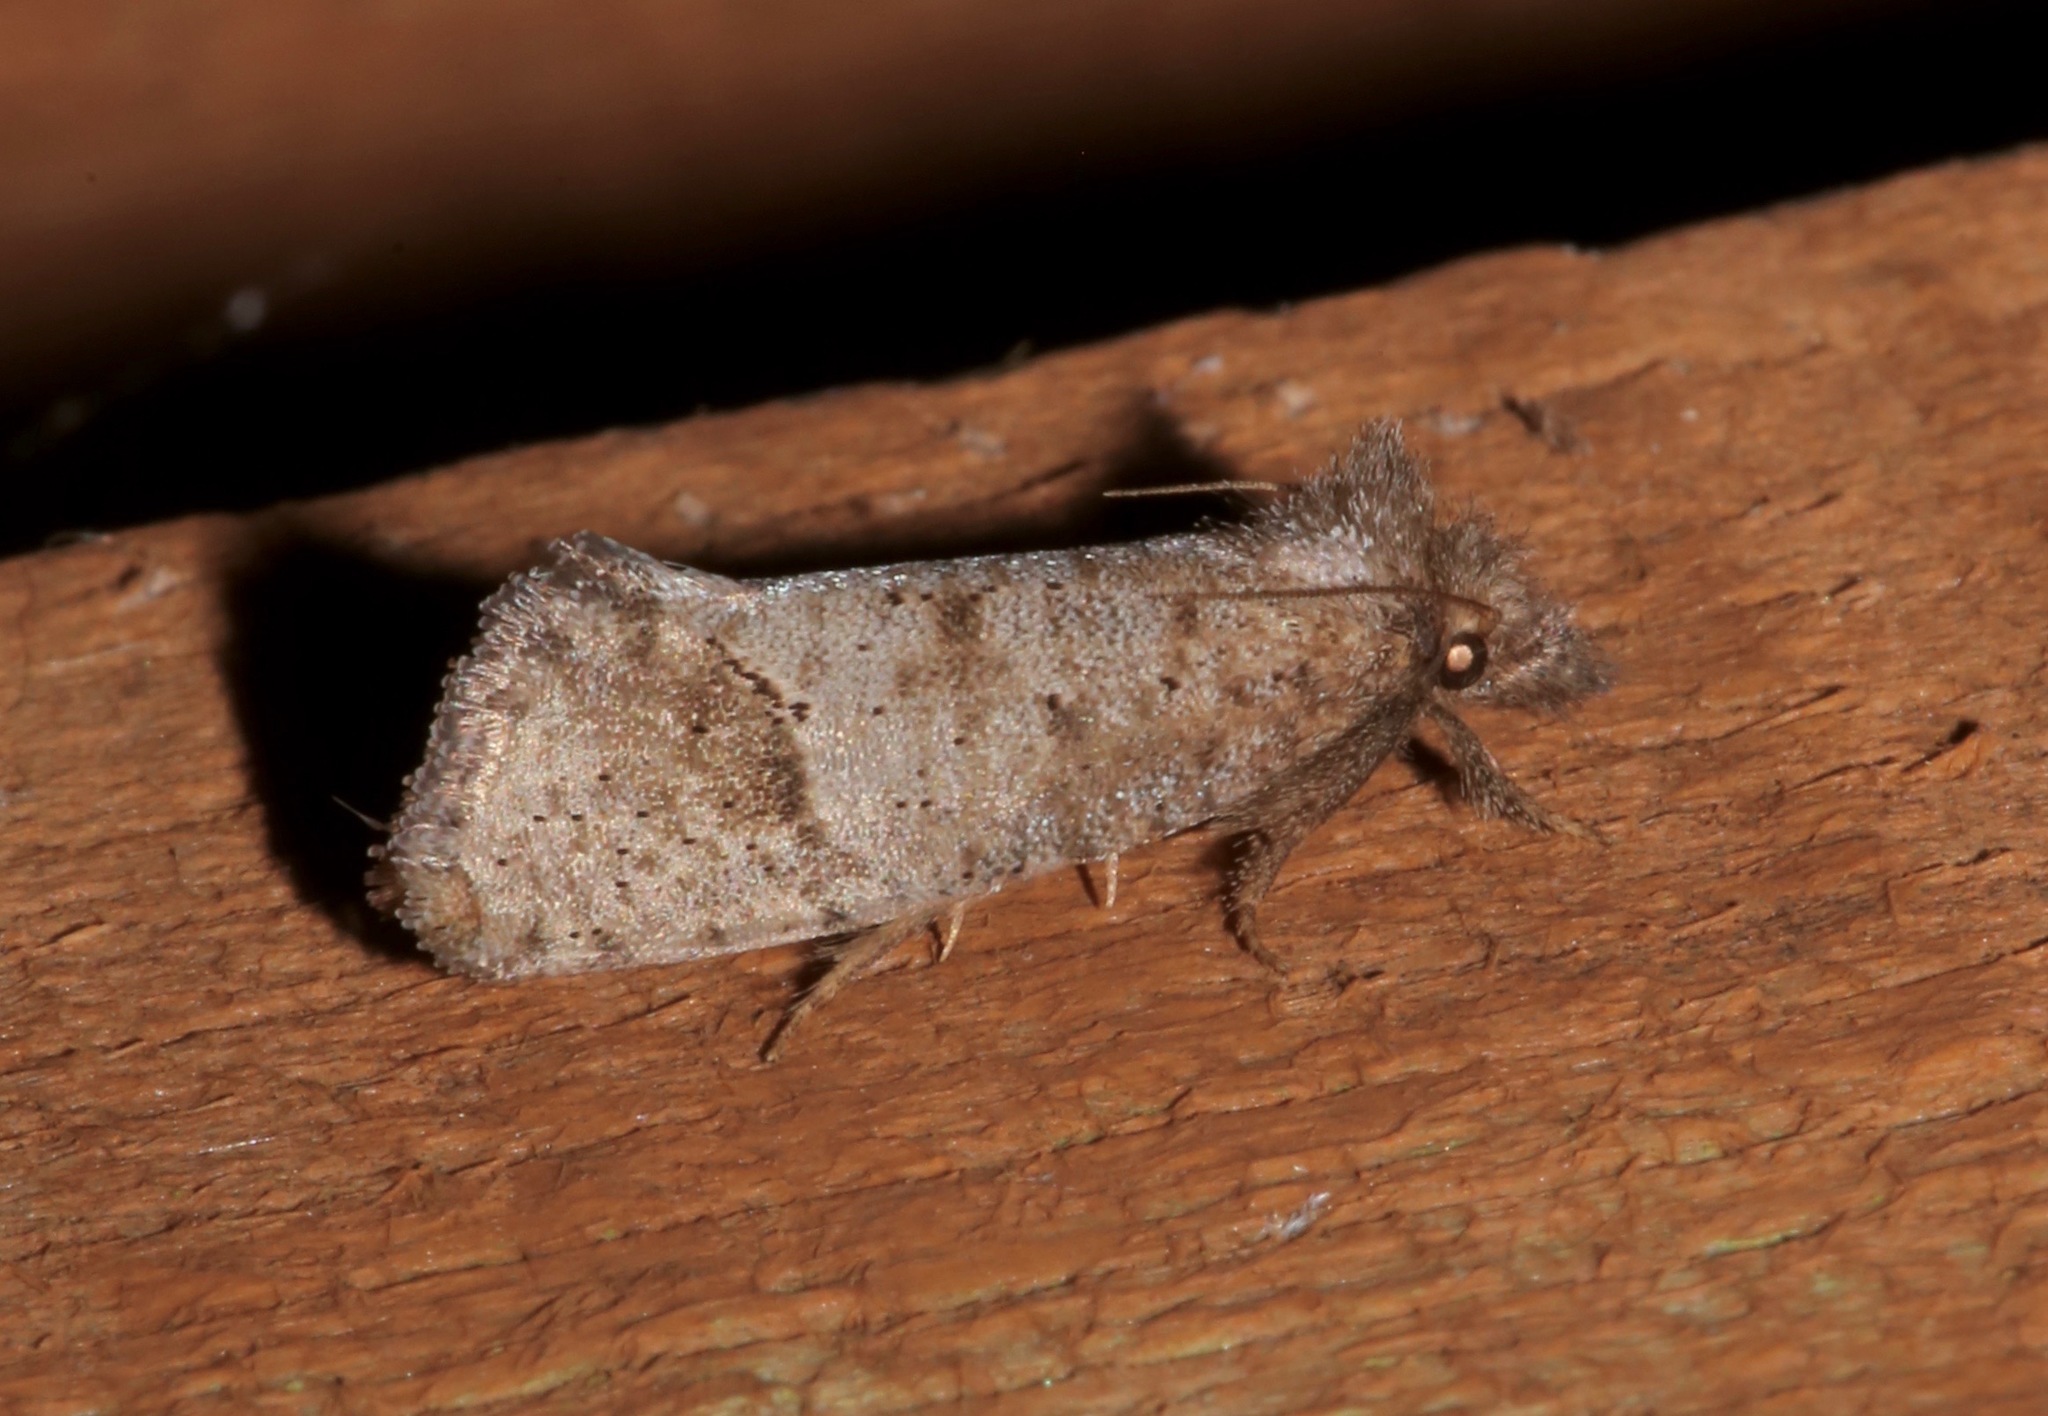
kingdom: Animalia
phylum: Arthropoda
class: Insecta
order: Lepidoptera
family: Tineidae
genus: Acrolophus
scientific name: Acrolophus texanella
